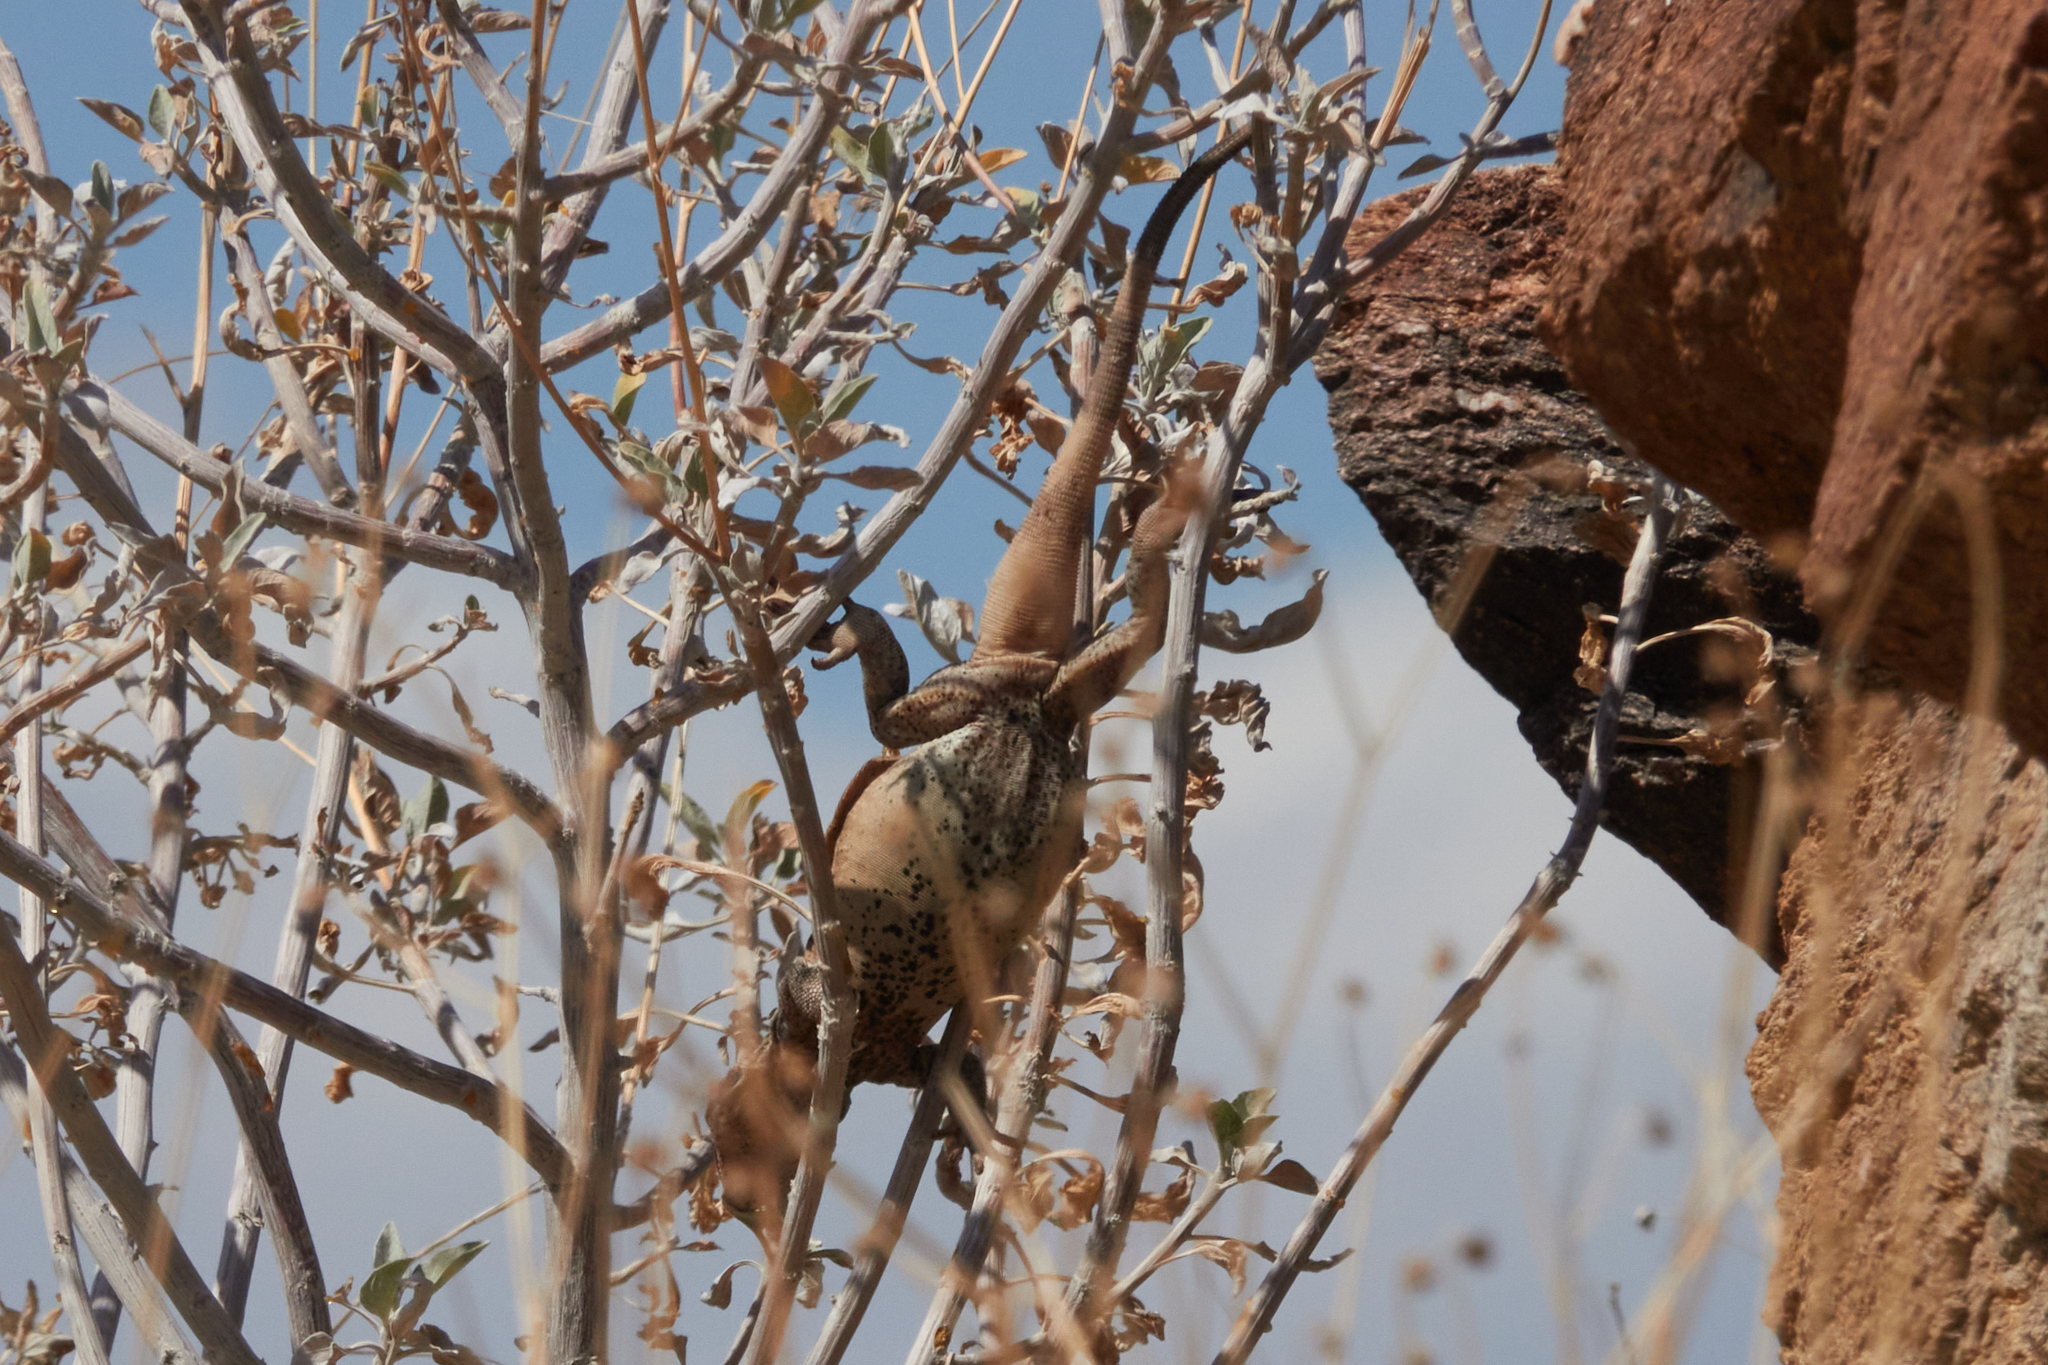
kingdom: Animalia
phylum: Chordata
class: Squamata
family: Iguanidae
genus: Sauromalus
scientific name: Sauromalus ater
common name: Northern chuckwalla
